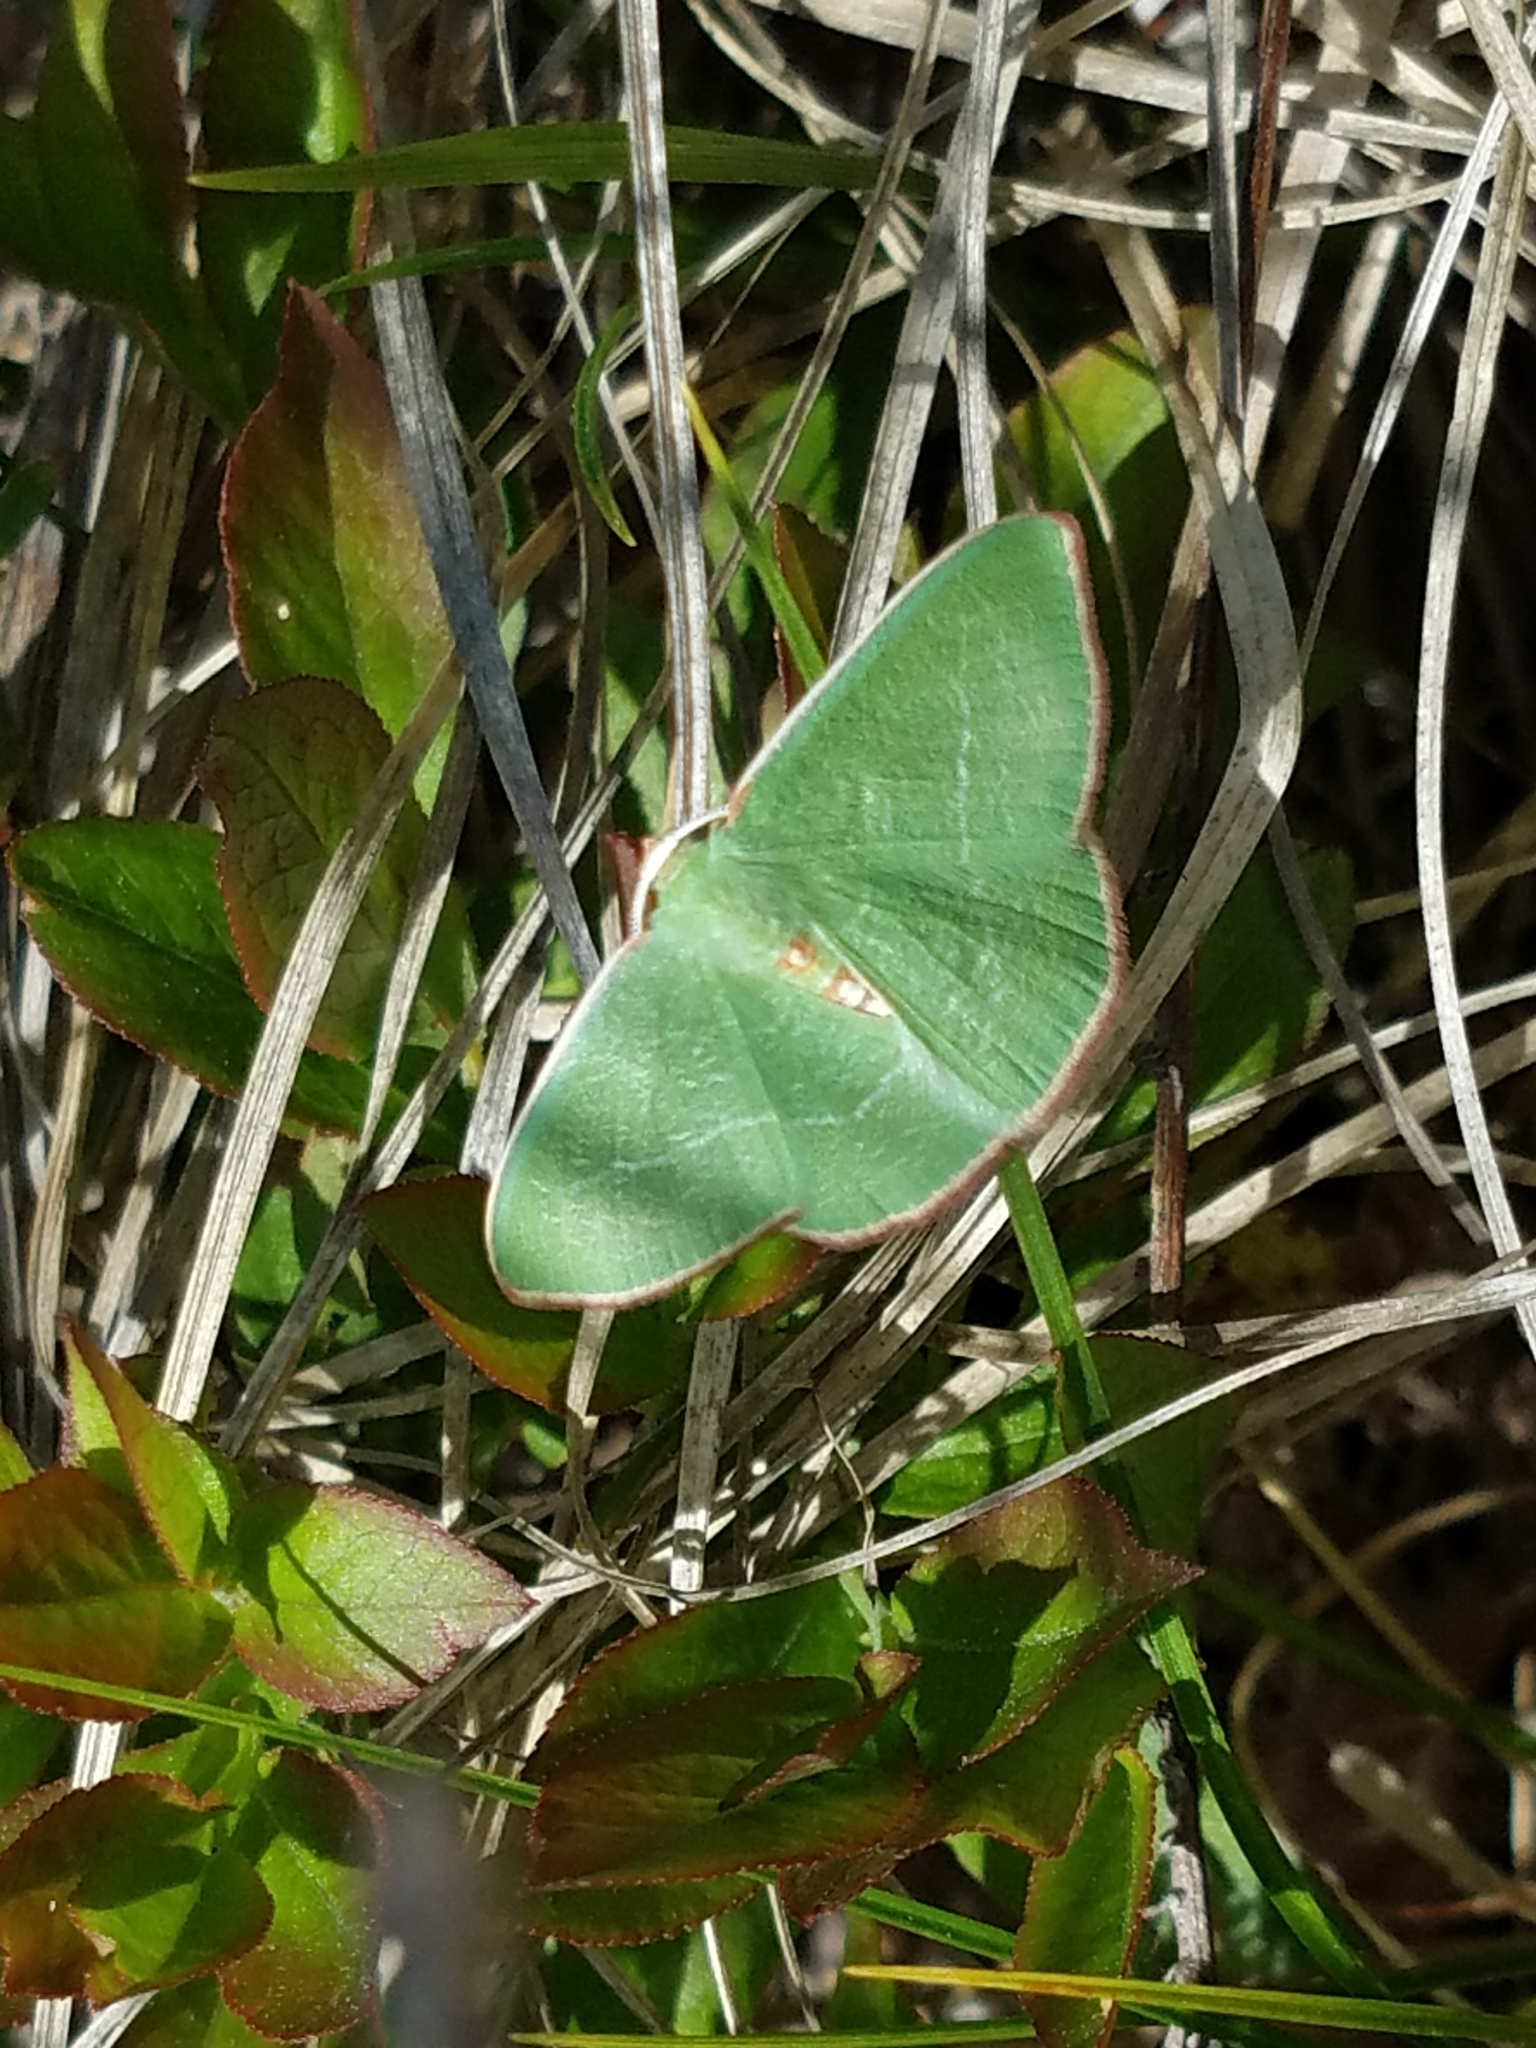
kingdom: Animalia
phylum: Arthropoda
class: Insecta
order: Lepidoptera
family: Geometridae
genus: Nemoria
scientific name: Nemoria rubrifrontaria
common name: Red-fronted emerald
